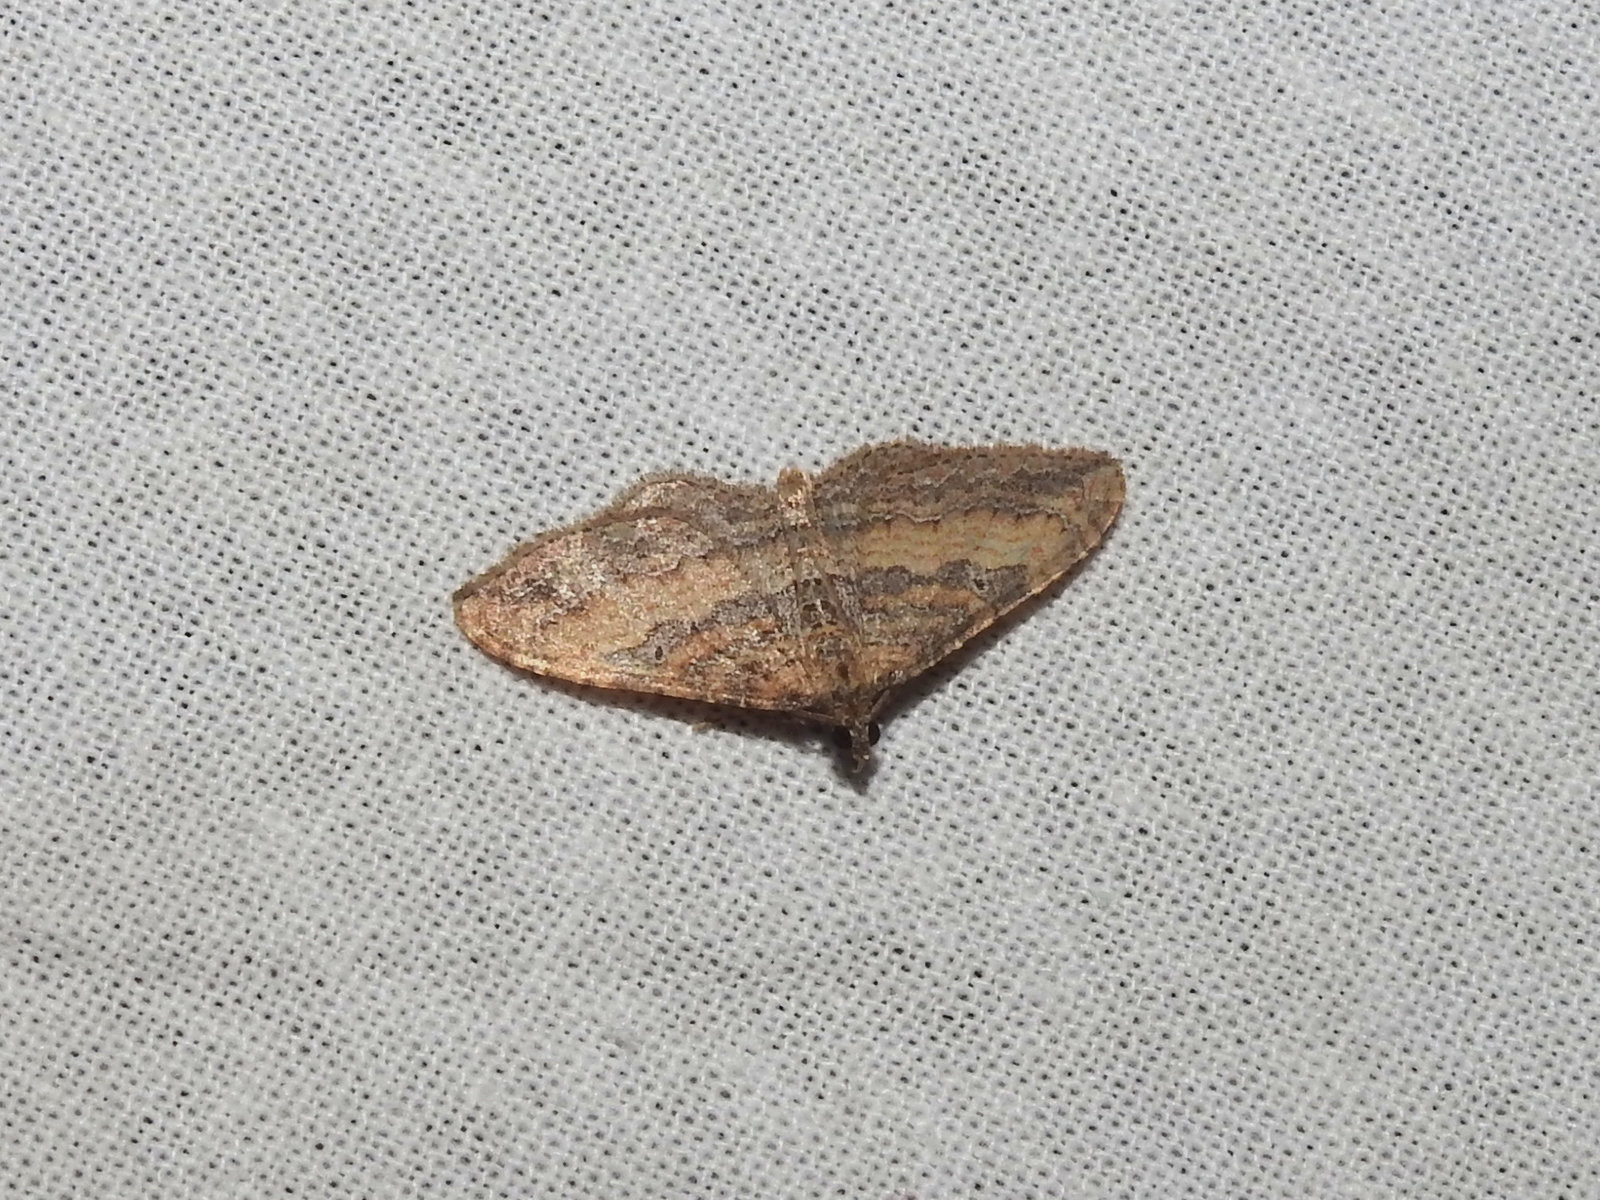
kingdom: Animalia
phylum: Arthropoda
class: Insecta
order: Lepidoptera
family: Geometridae
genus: Orthonama
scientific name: Orthonama obstipata
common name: The gem
